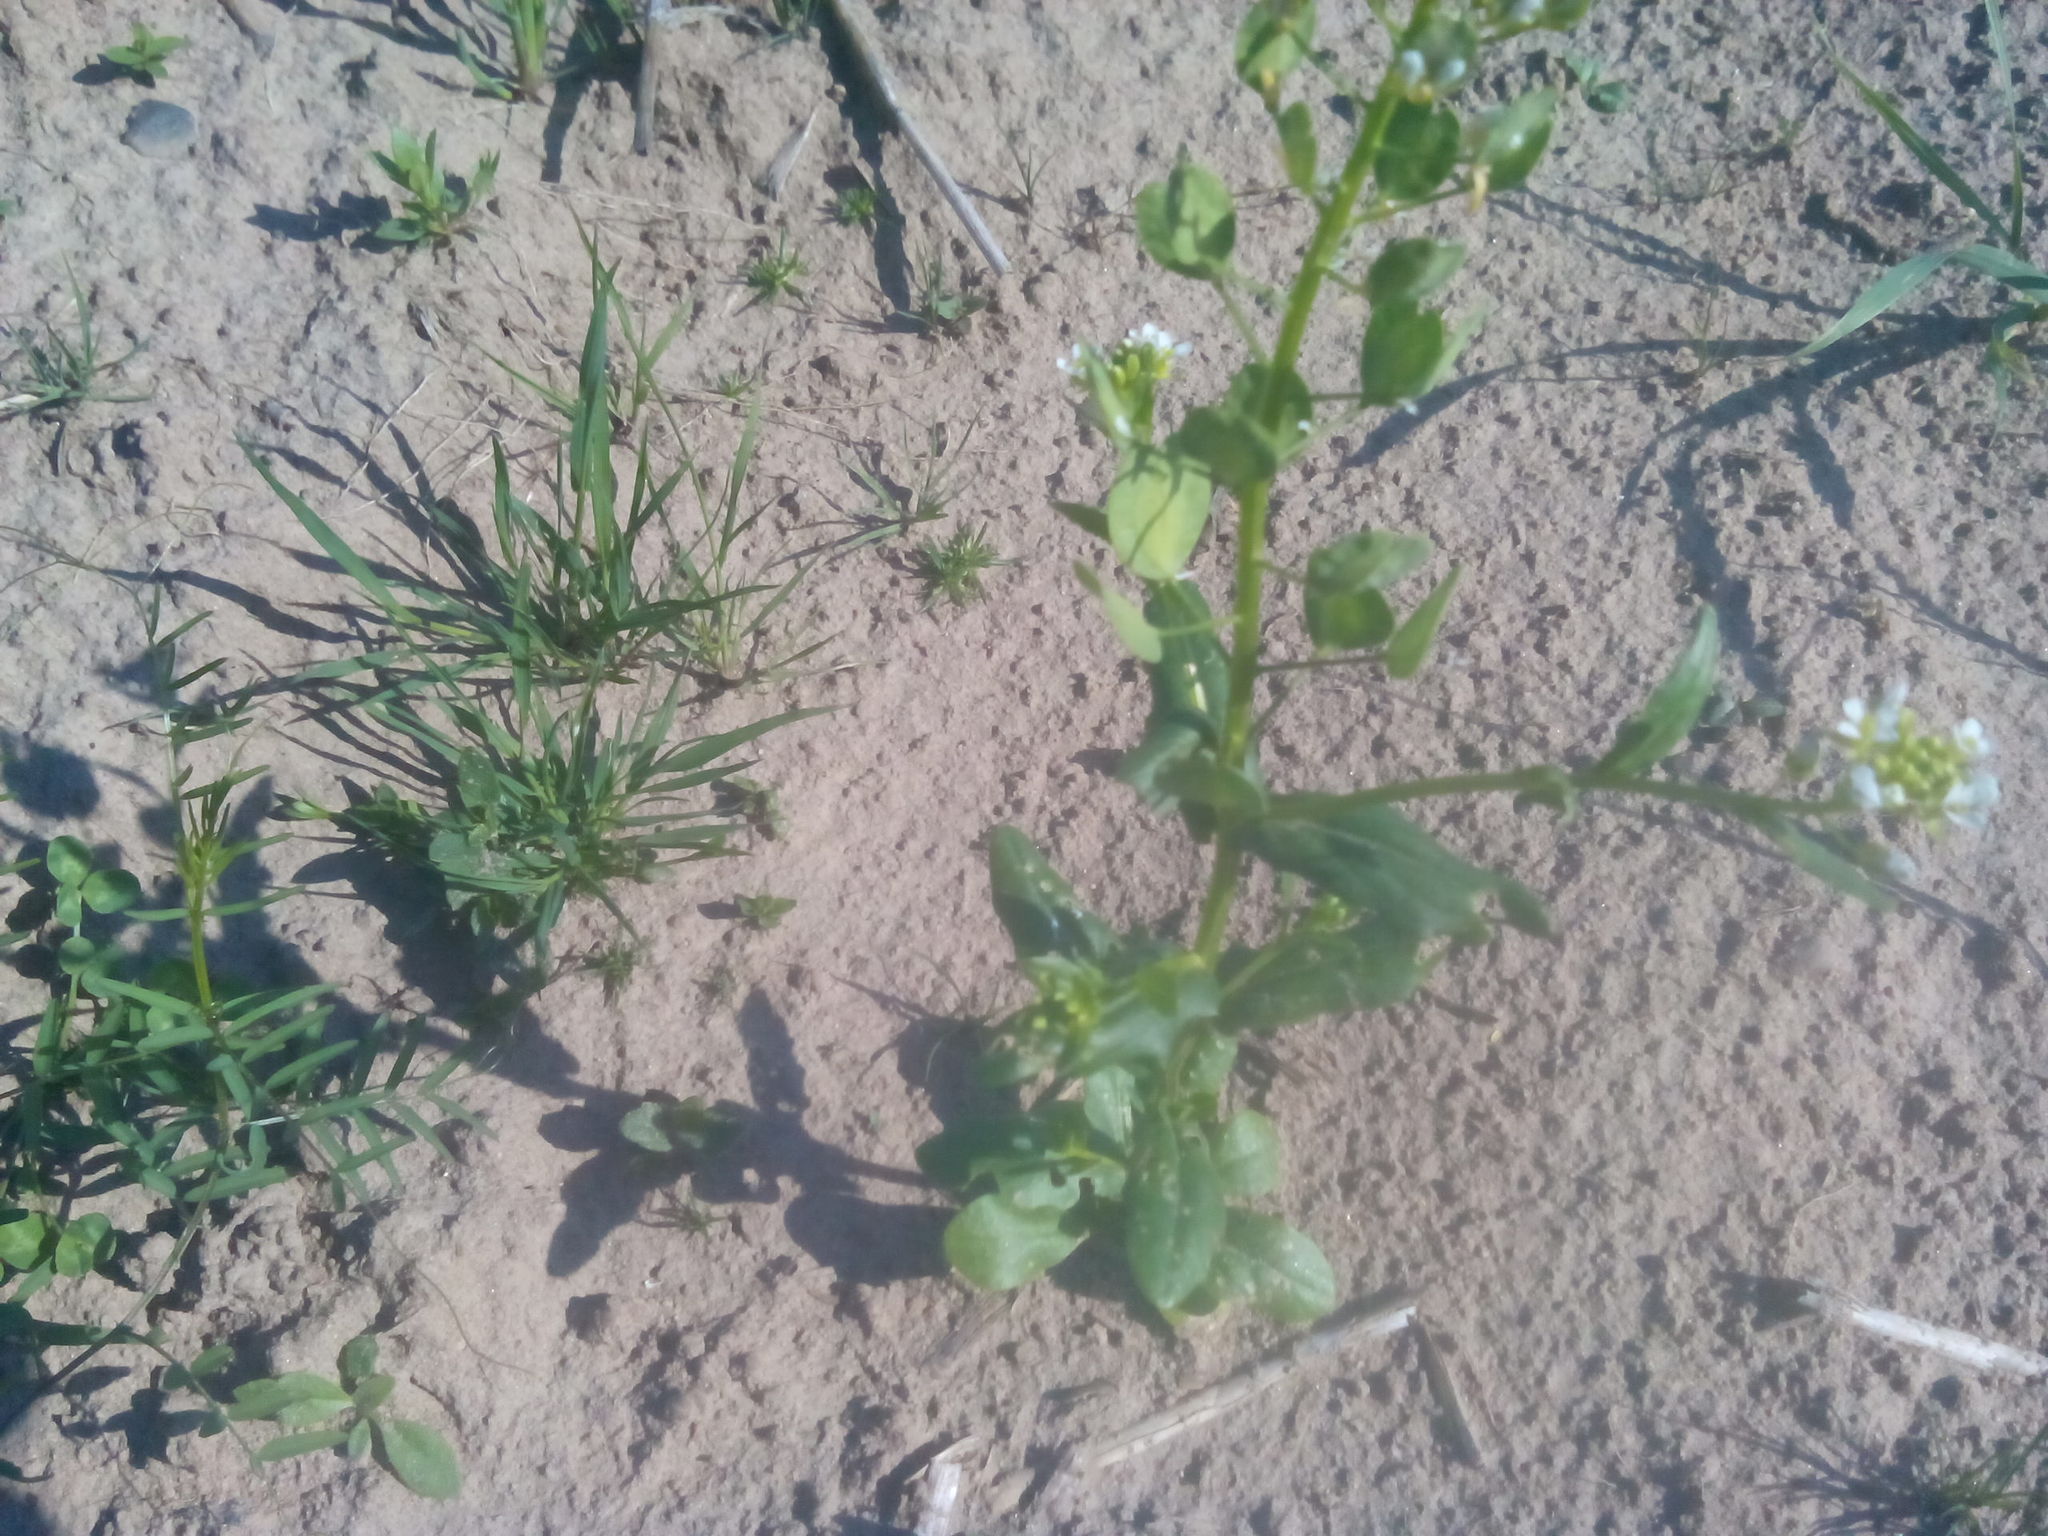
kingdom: Plantae
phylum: Tracheophyta
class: Magnoliopsida
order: Brassicales
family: Brassicaceae
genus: Thlaspi
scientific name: Thlaspi arvense
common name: Field pennycress
